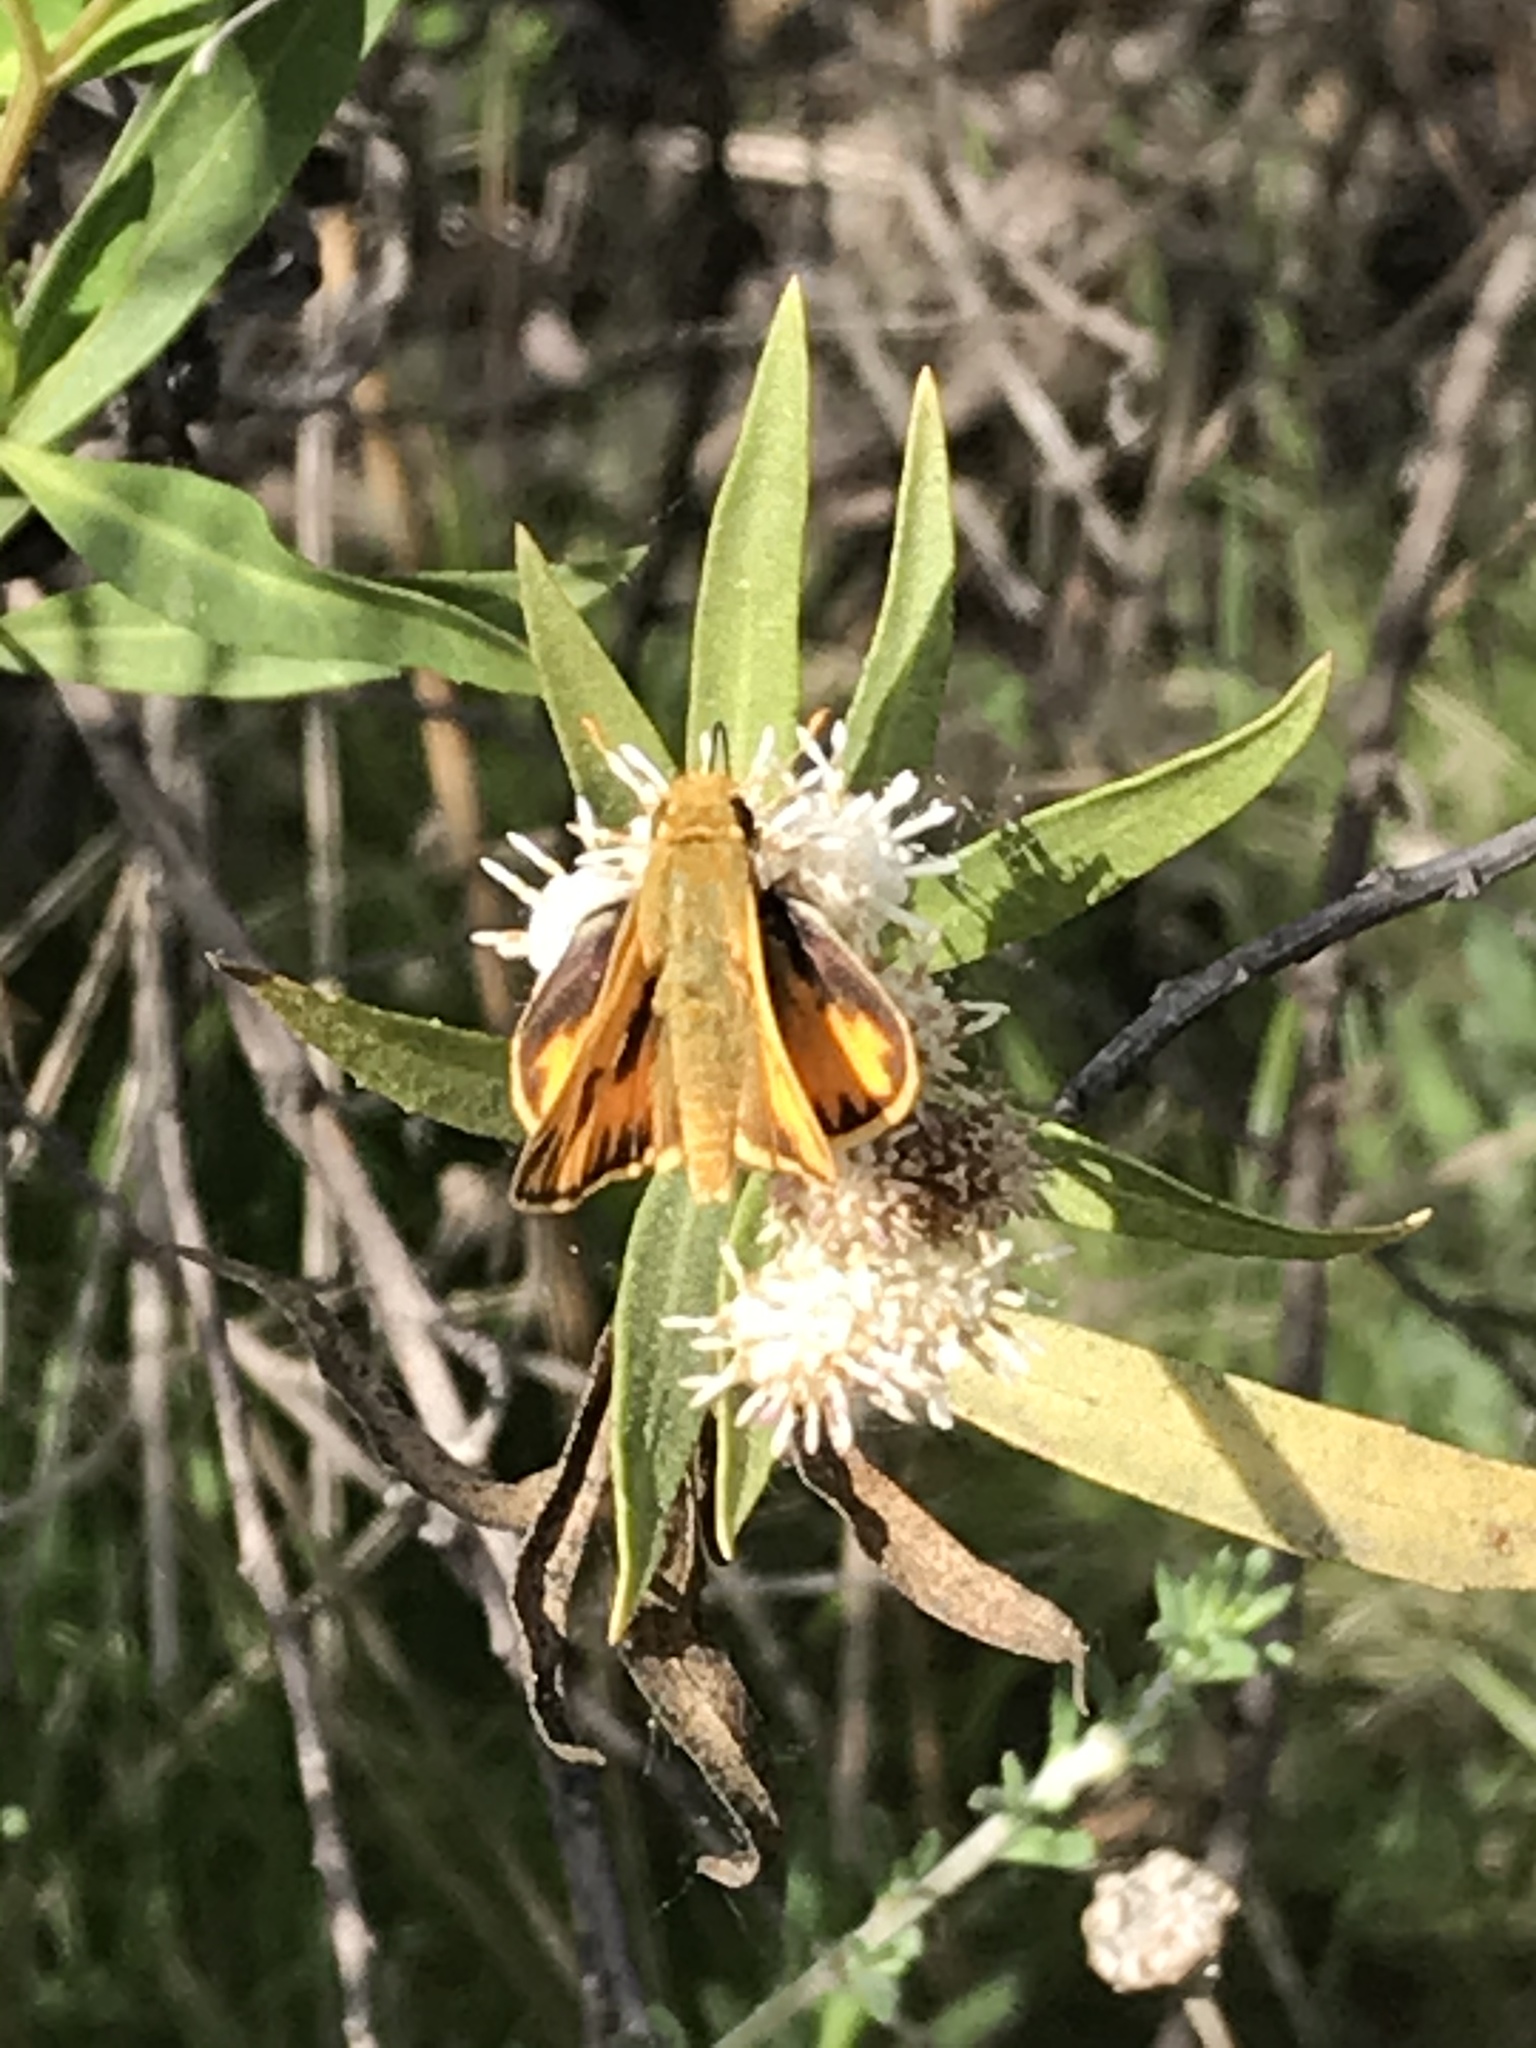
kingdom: Animalia
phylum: Arthropoda
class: Insecta
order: Lepidoptera
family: Hesperiidae
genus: Hylephila
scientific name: Hylephila phyleus
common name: Fiery skipper
